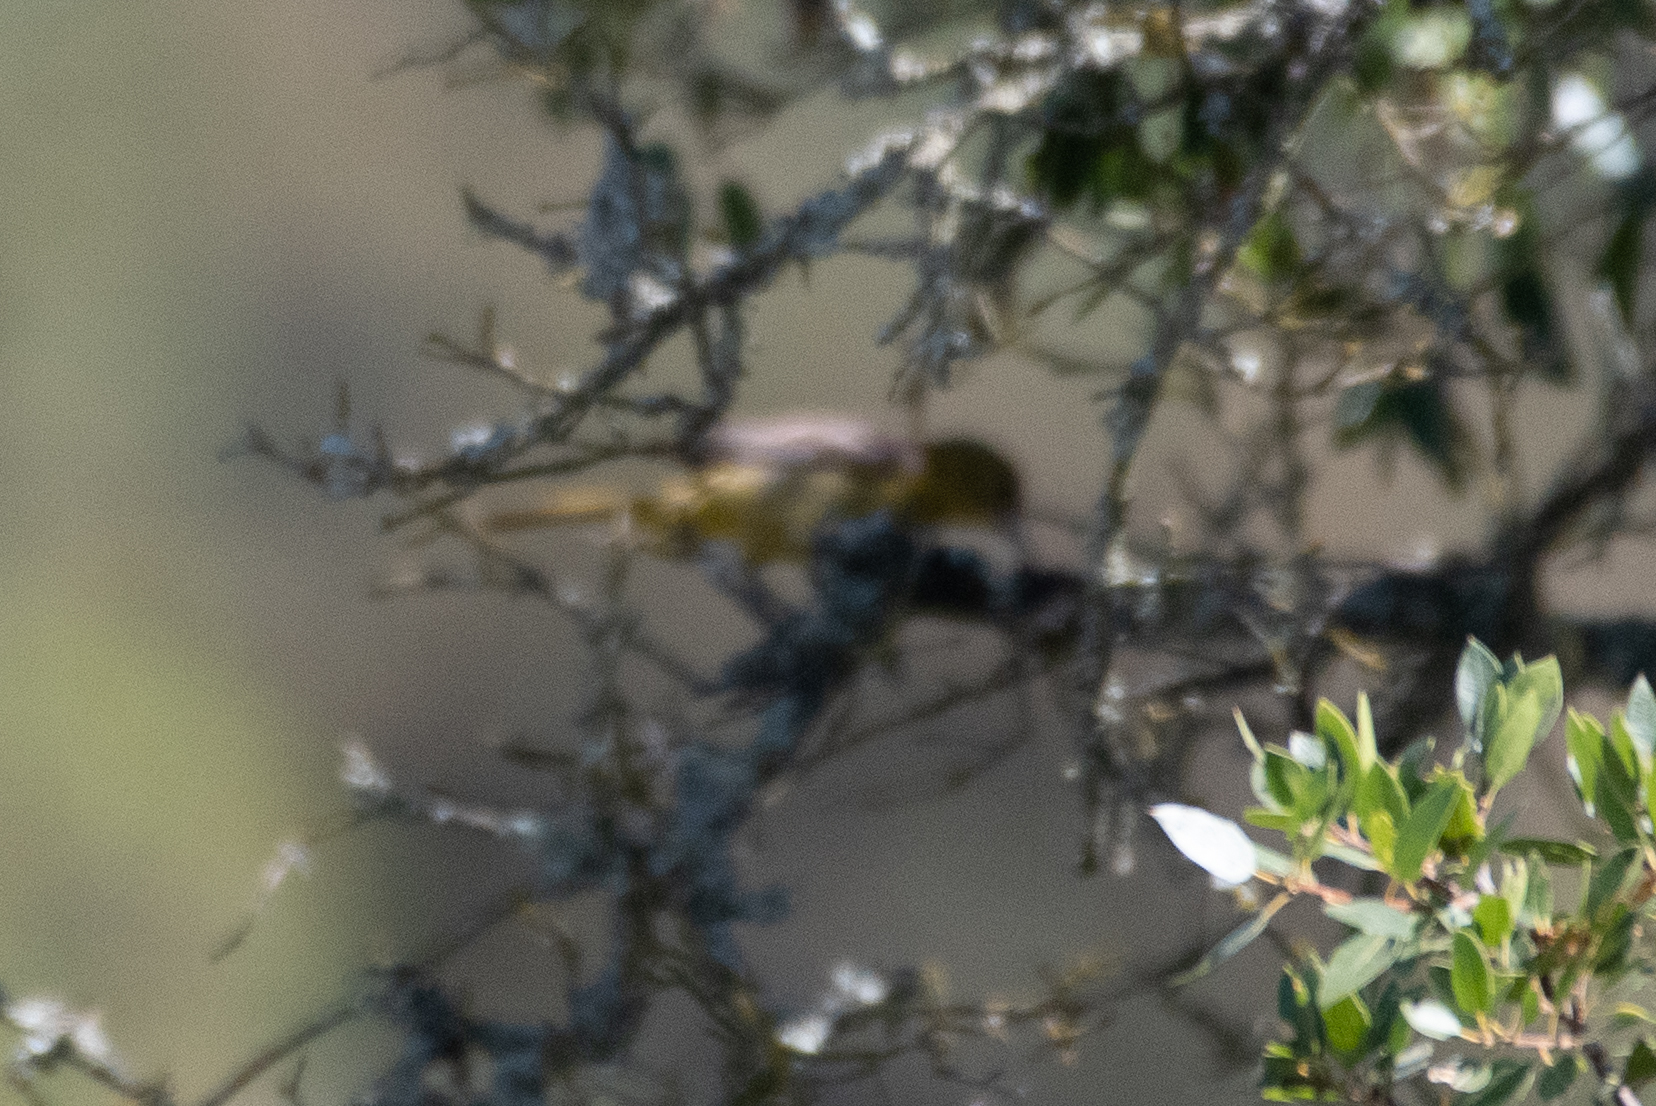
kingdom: Animalia
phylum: Chordata
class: Aves
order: Passeriformes
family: Icteridae
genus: Icterus
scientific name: Icterus cucullatus
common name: Hooded oriole
